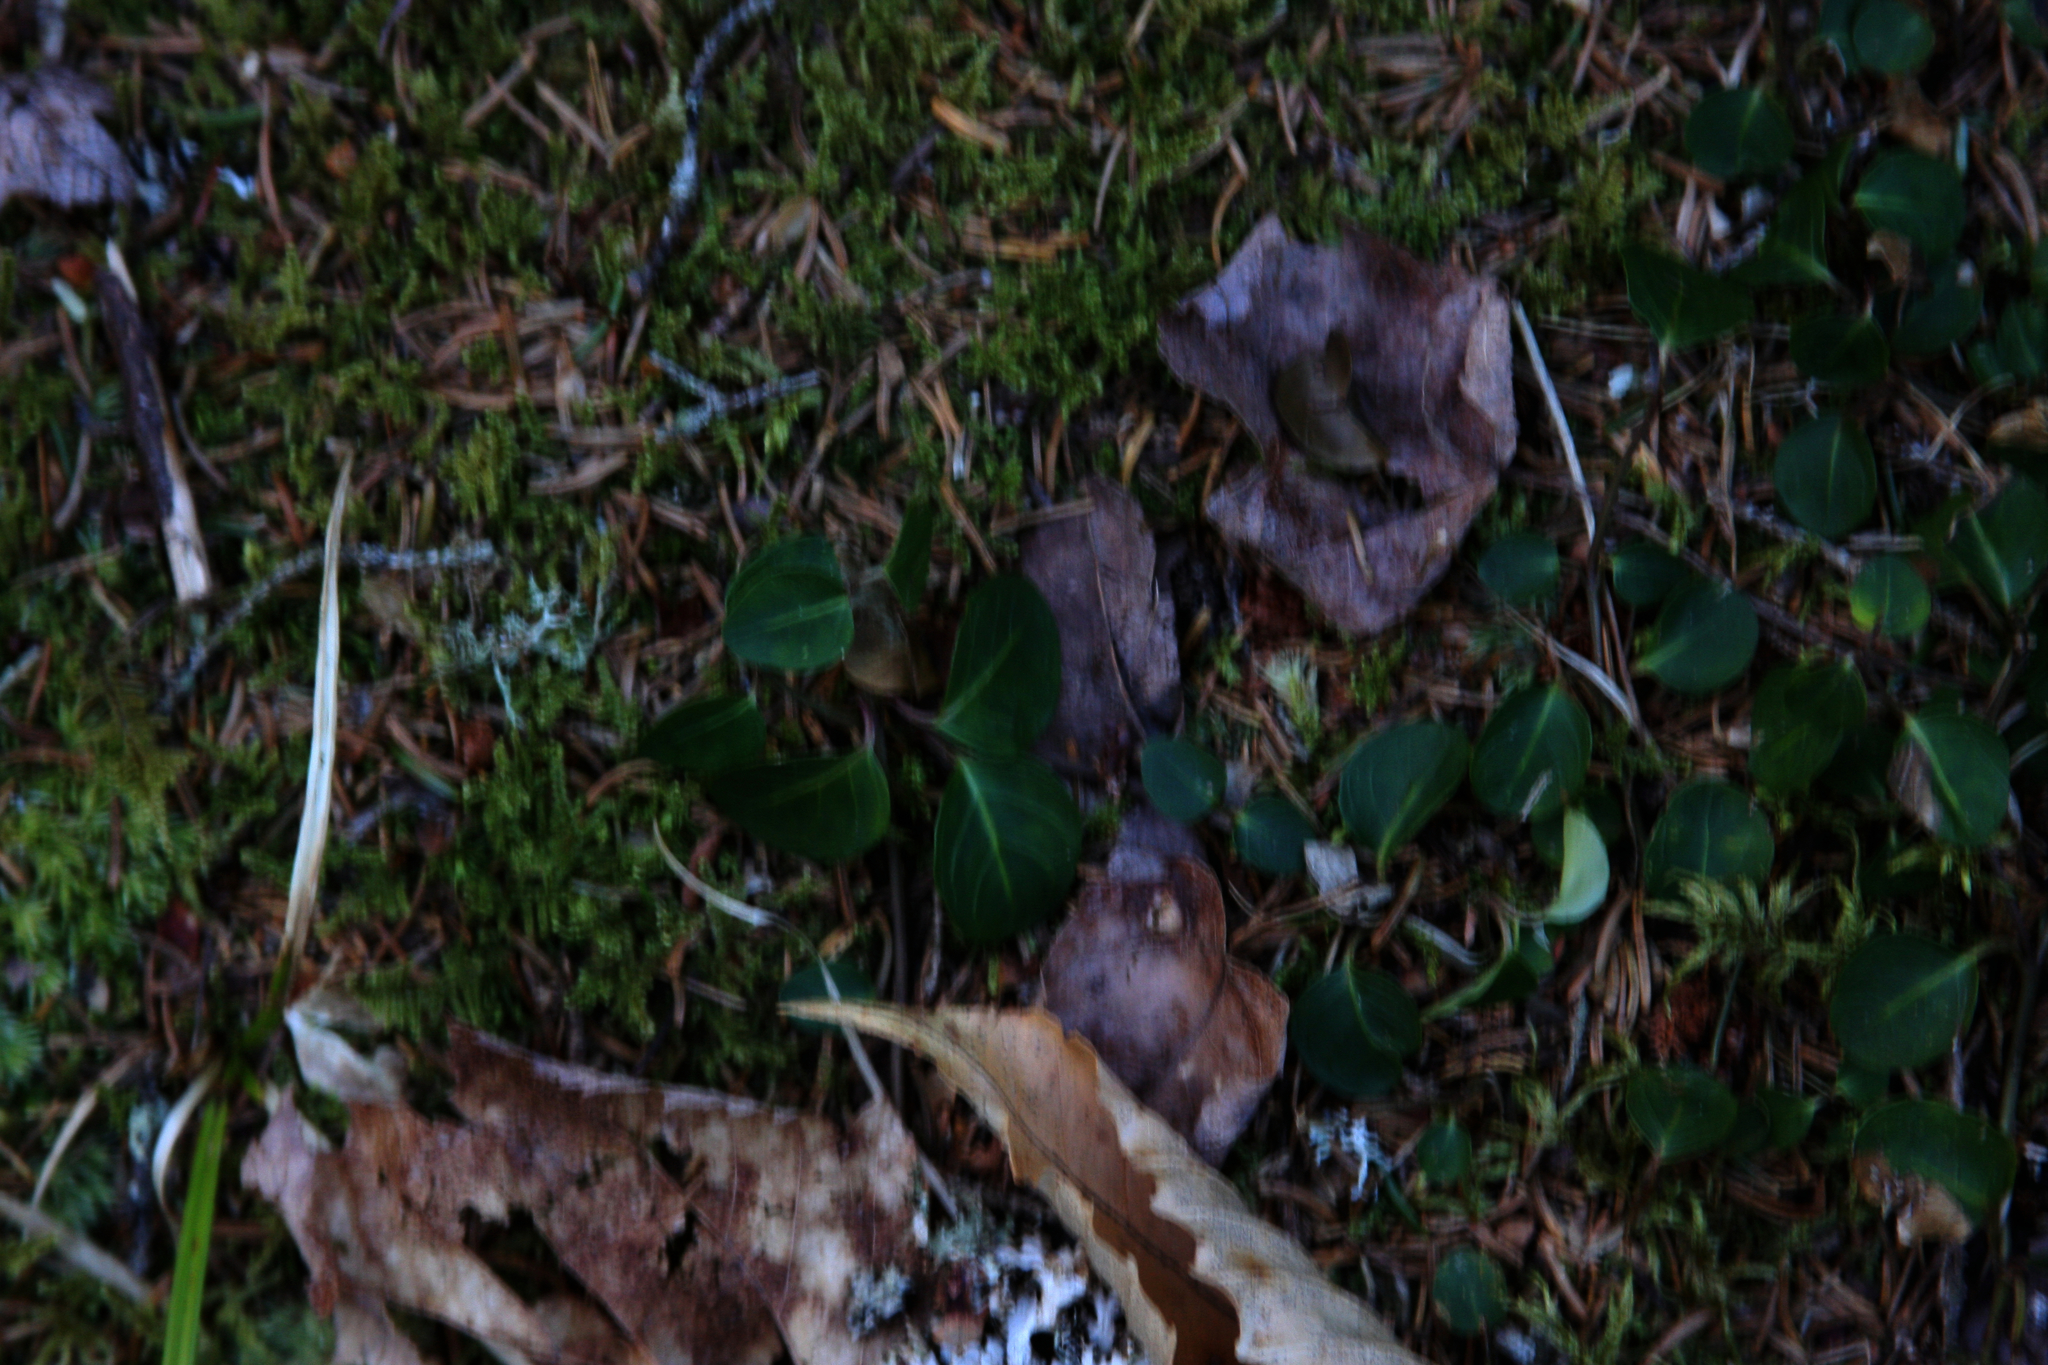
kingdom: Plantae
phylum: Tracheophyta
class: Magnoliopsida
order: Gentianales
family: Rubiaceae
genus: Mitchella
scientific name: Mitchella repens
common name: Partridge-berry
